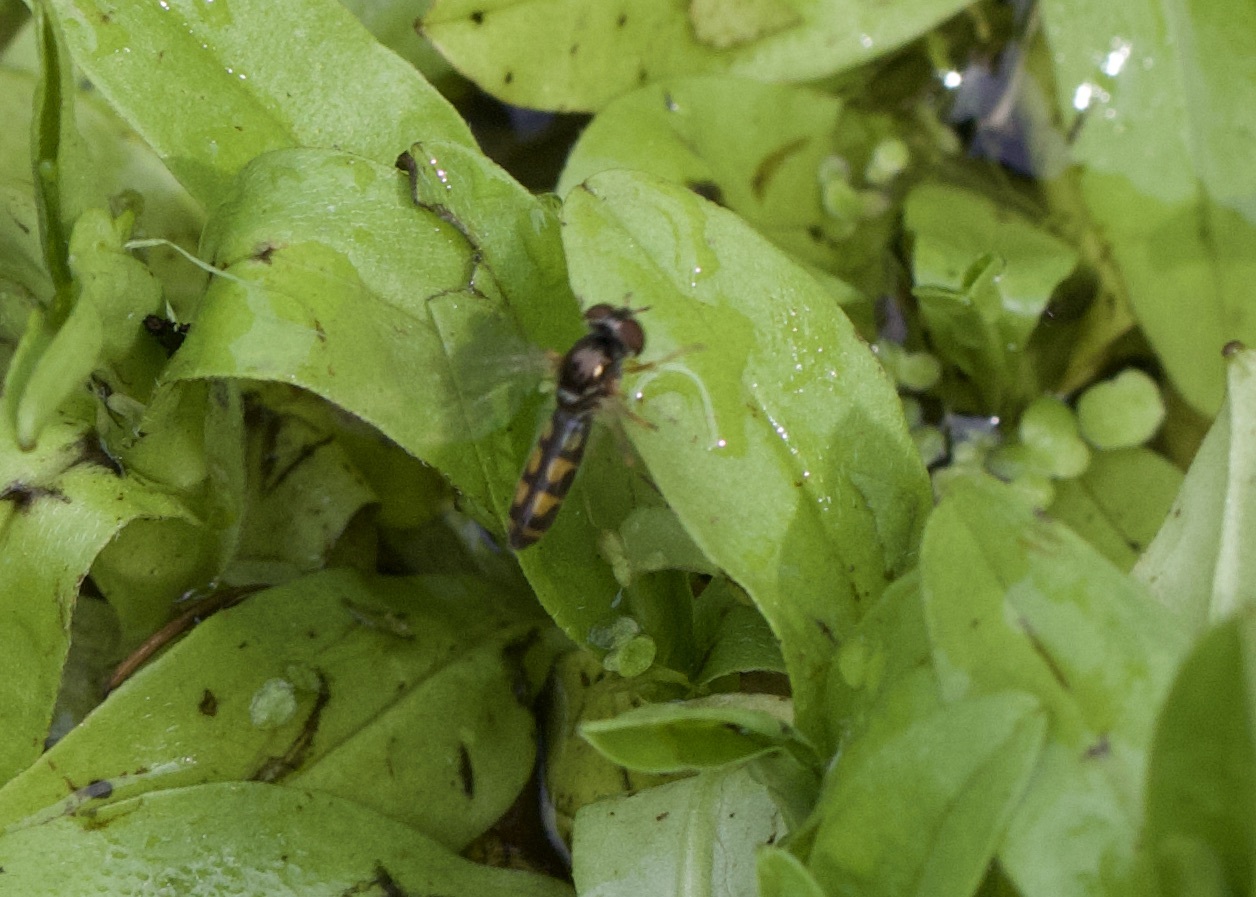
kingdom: Animalia
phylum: Arthropoda
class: Insecta
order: Diptera
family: Syrphidae
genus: Melanostoma
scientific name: Melanostoma
